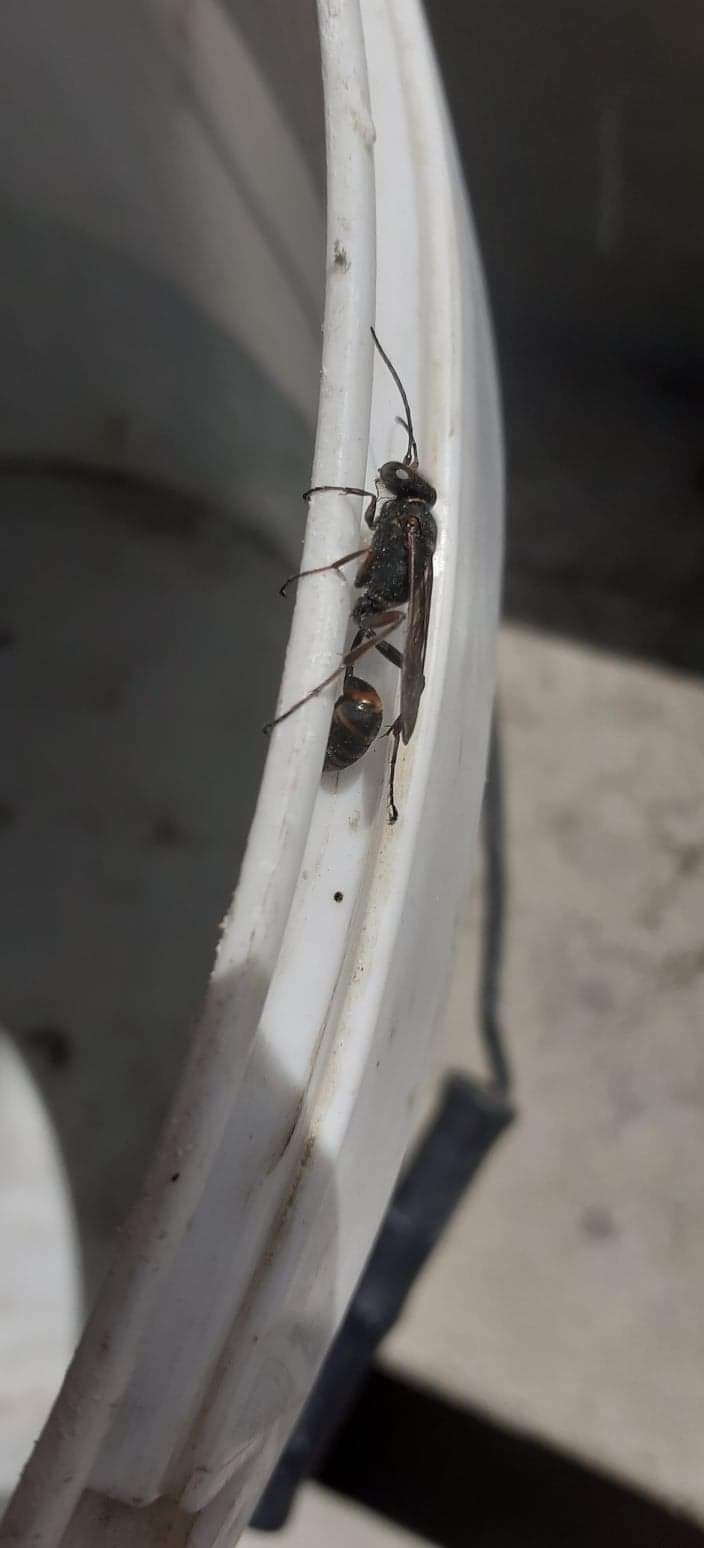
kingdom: Animalia
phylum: Arthropoda
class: Insecta
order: Hymenoptera
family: Sphecidae
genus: Sceliphron
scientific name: Sceliphron curvatum
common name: Pèlopèe
